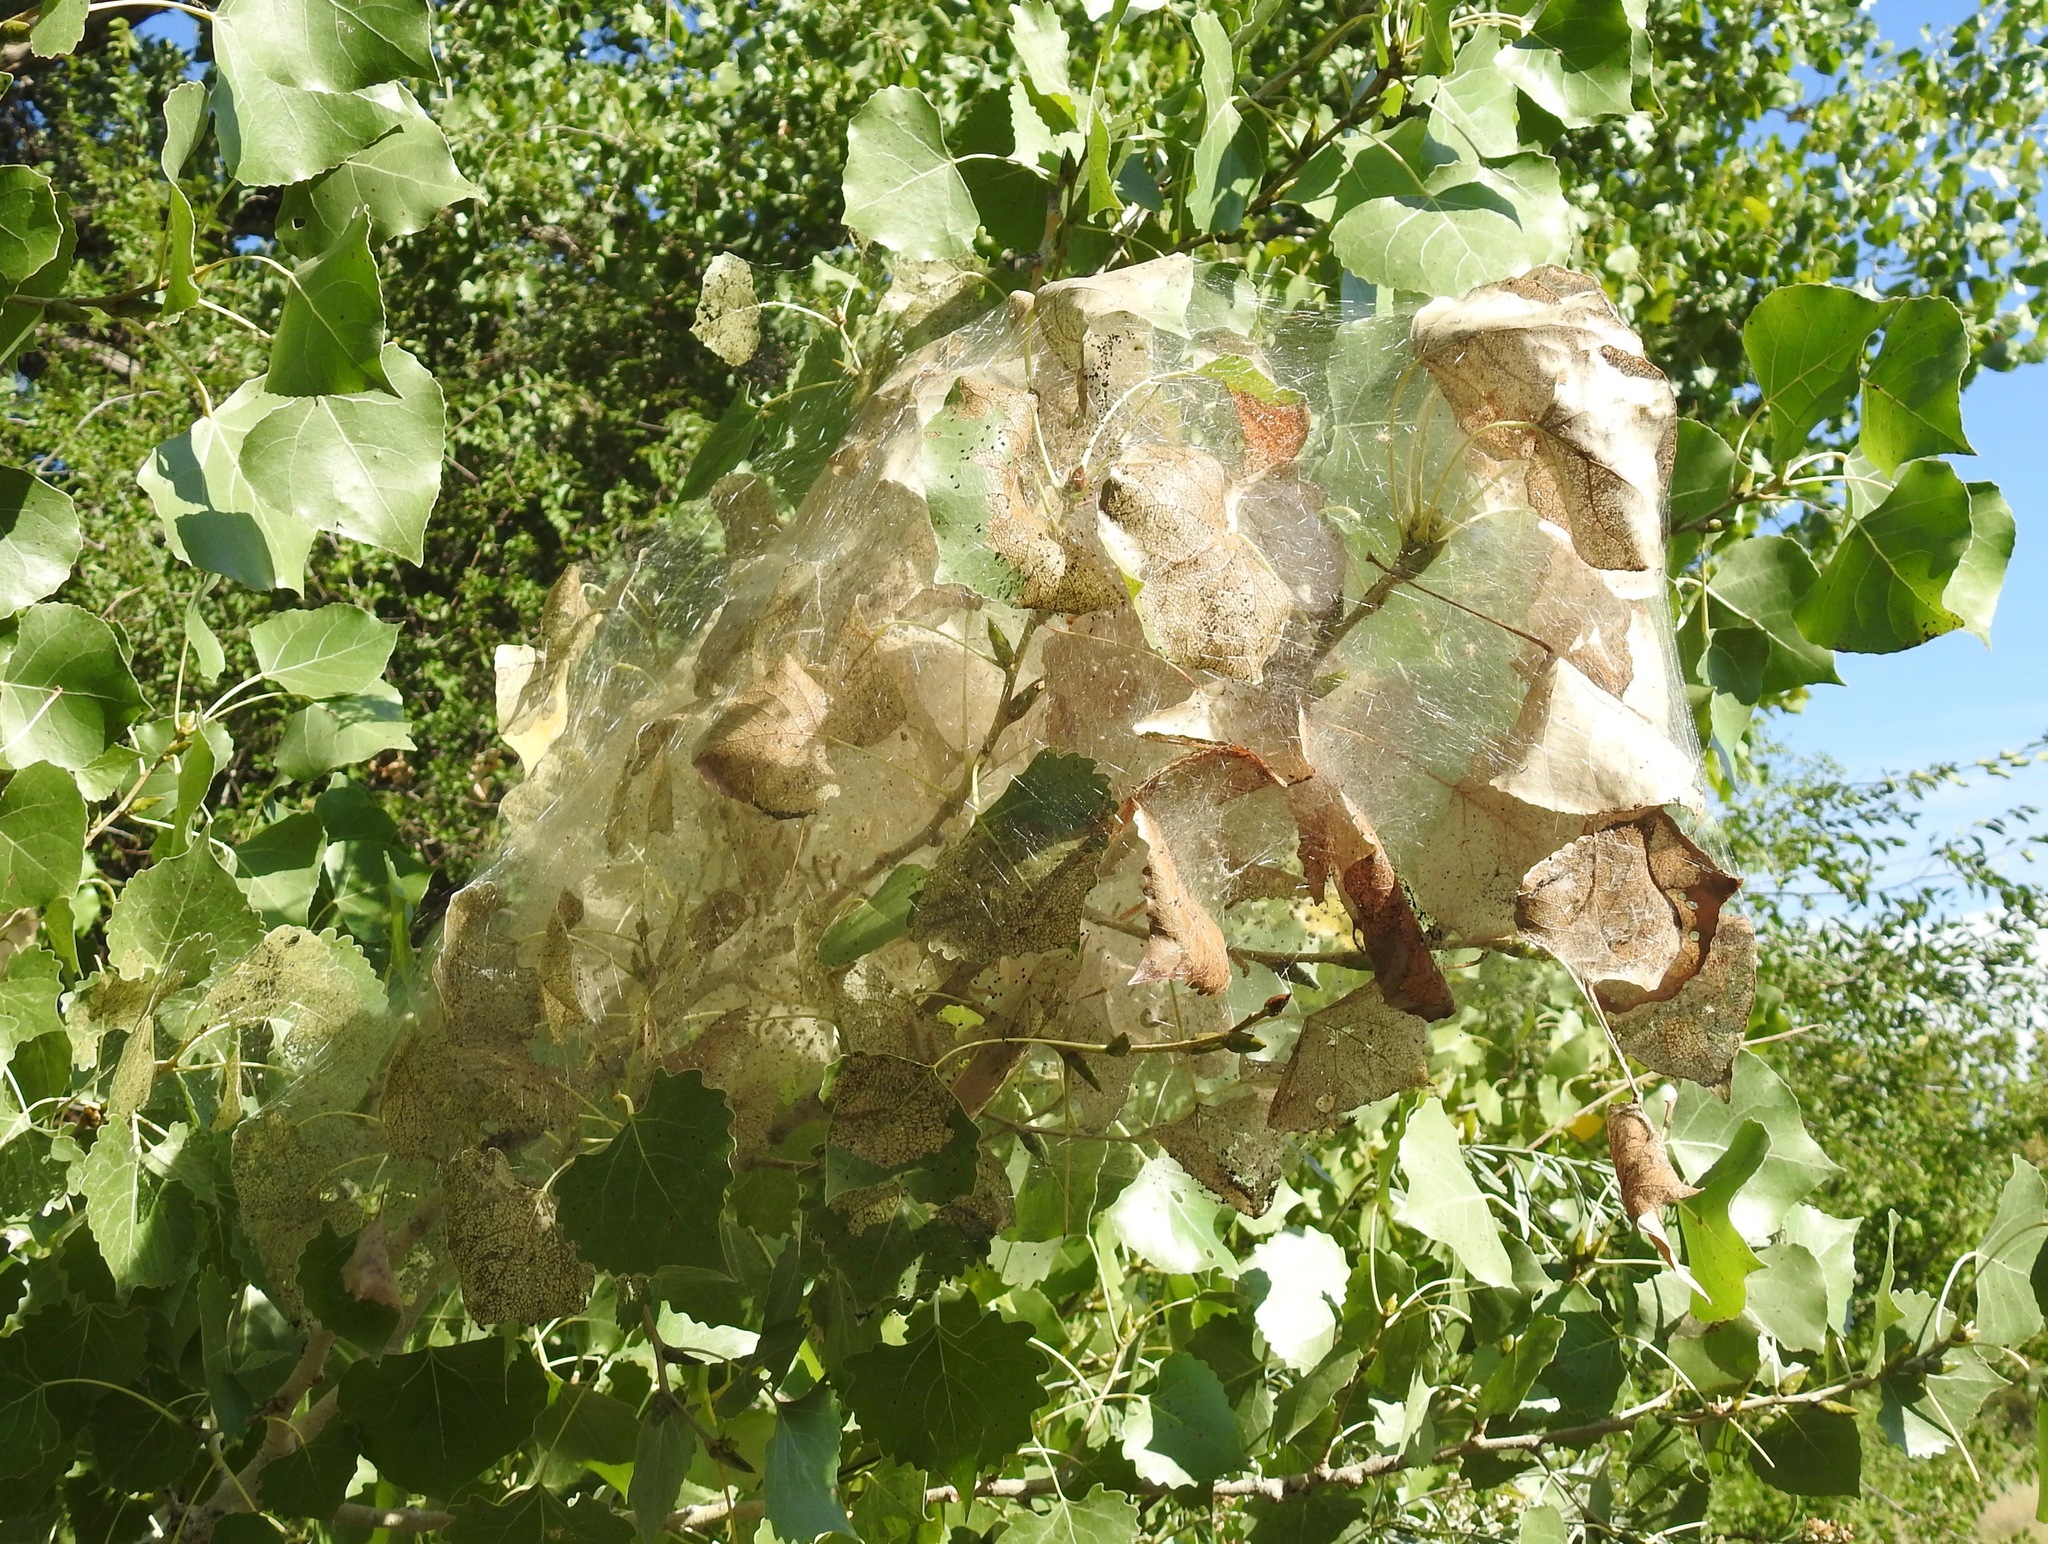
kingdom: Animalia
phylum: Arthropoda
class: Insecta
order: Lepidoptera
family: Erebidae
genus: Hyphantria
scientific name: Hyphantria cunea
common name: American white moth
